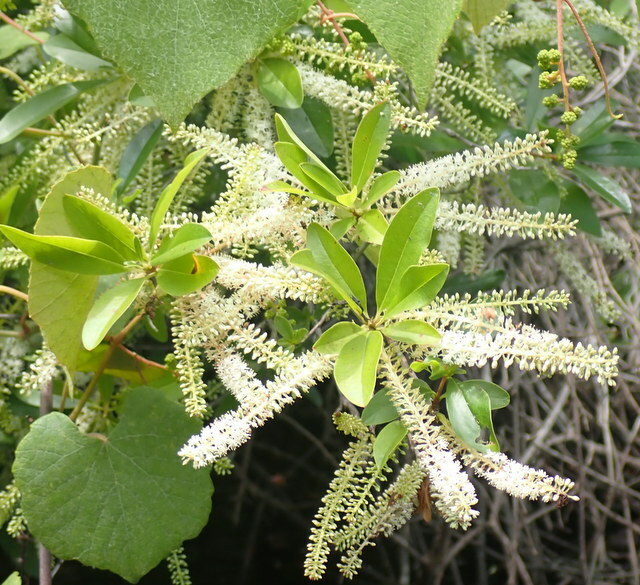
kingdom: Plantae
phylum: Tracheophyta
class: Magnoliopsida
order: Ericales
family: Cyrillaceae
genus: Cyrilla
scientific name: Cyrilla racemiflora
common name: Black titi
